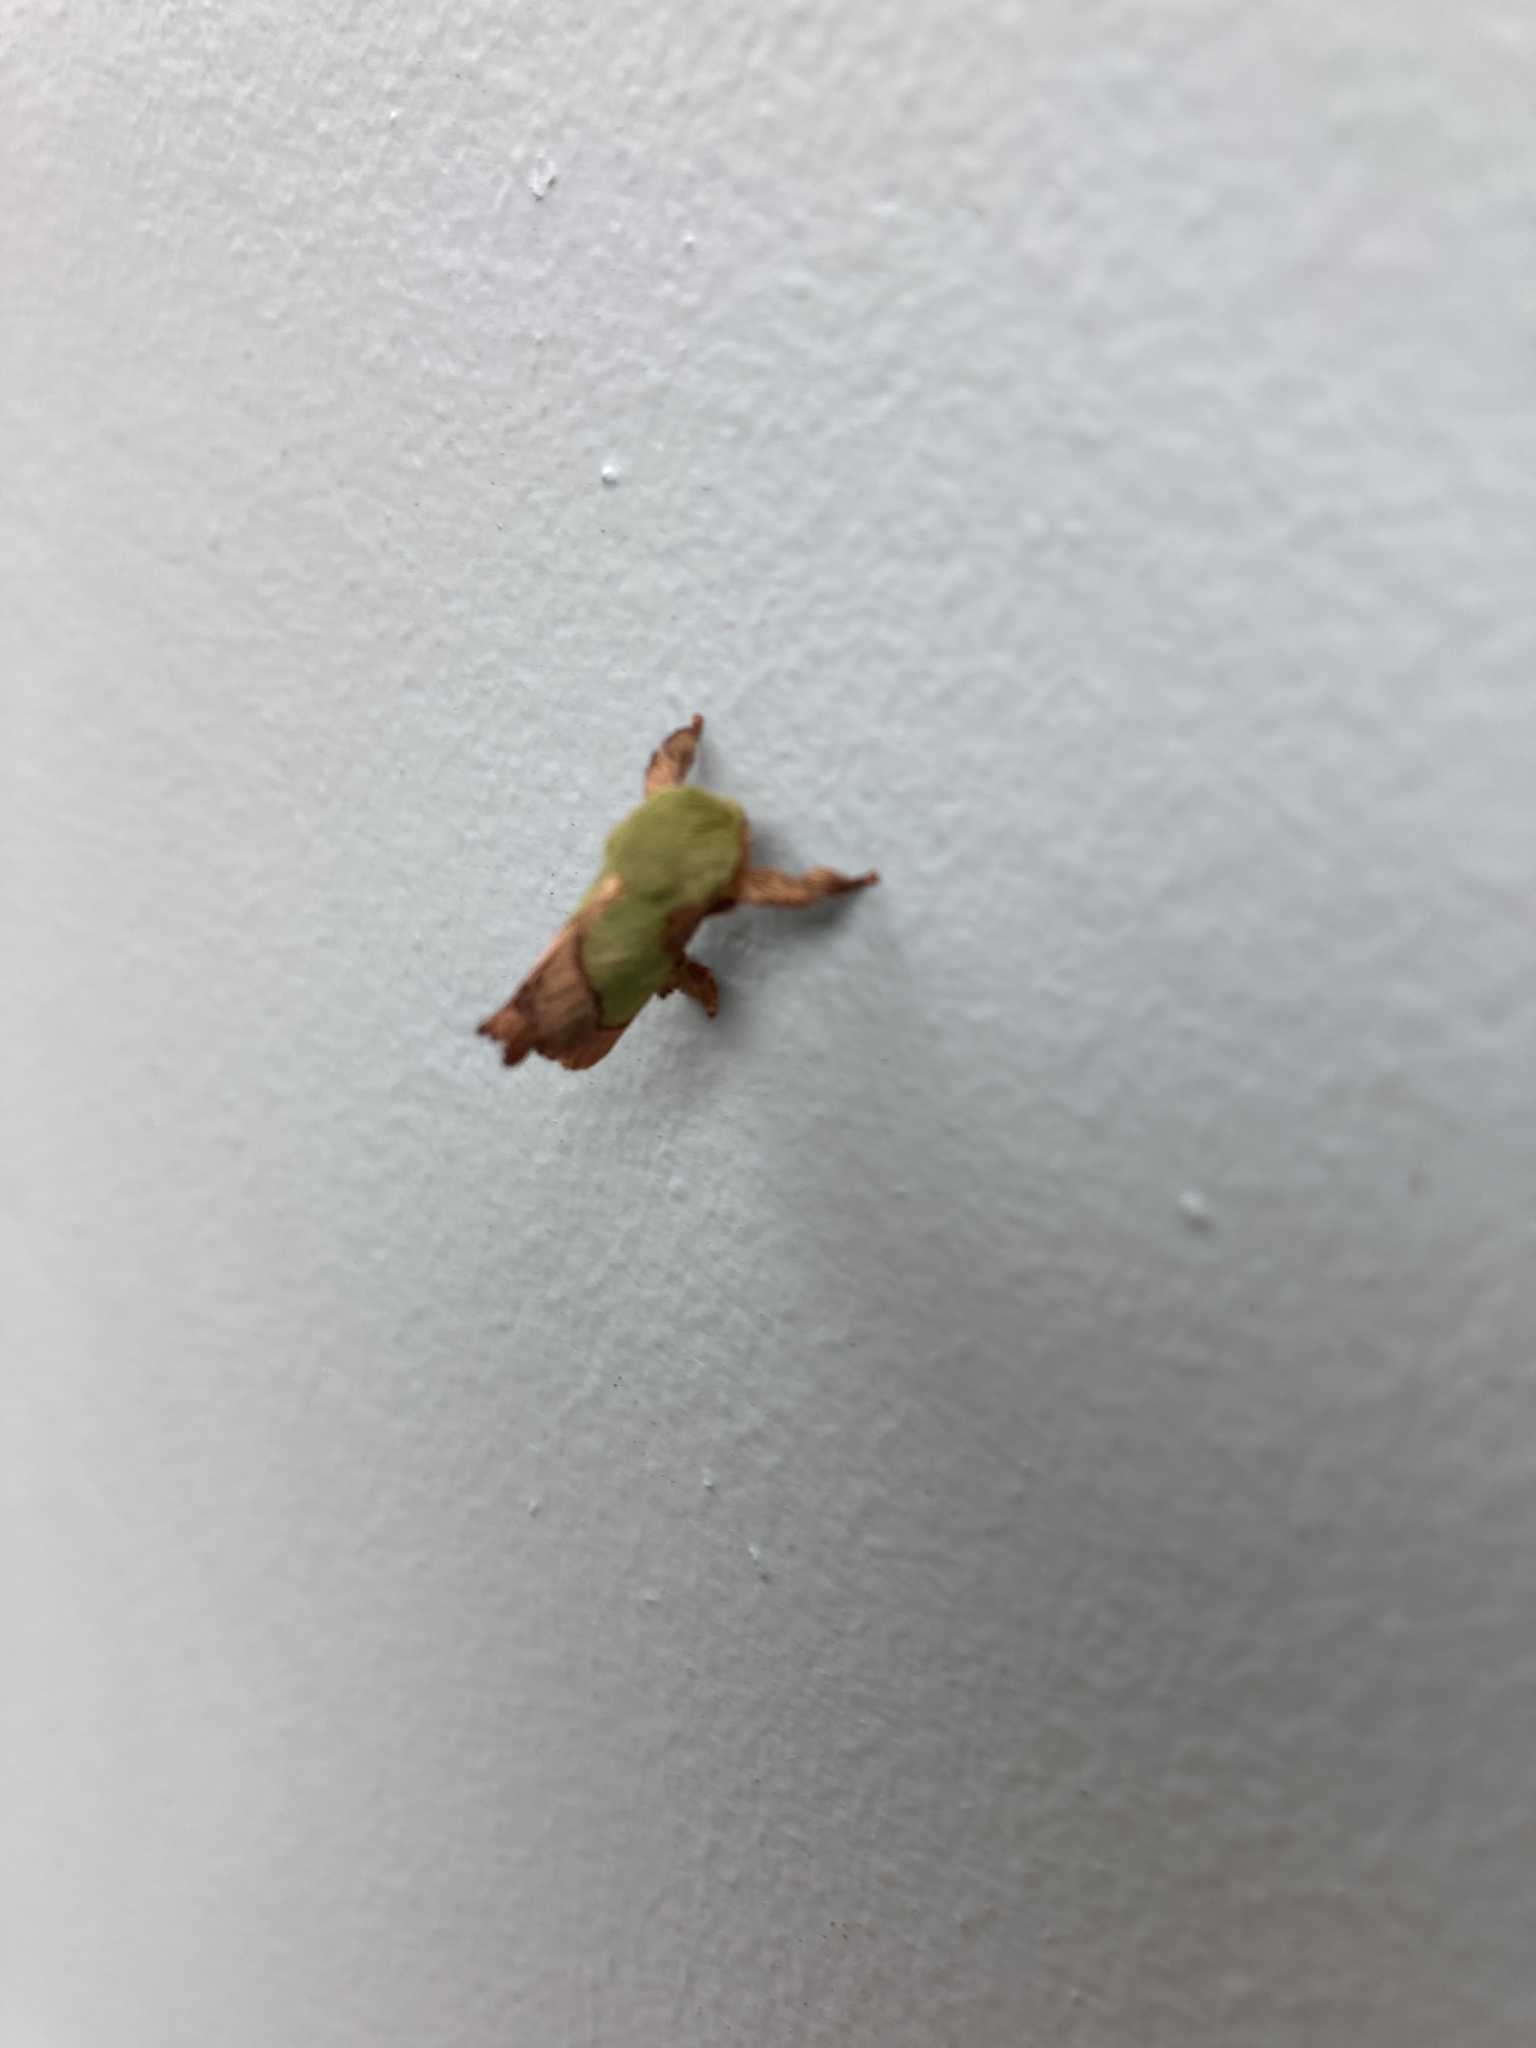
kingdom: Animalia
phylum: Arthropoda
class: Insecta
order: Lepidoptera
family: Limacodidae
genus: Parasa
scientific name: Parasa chloris
